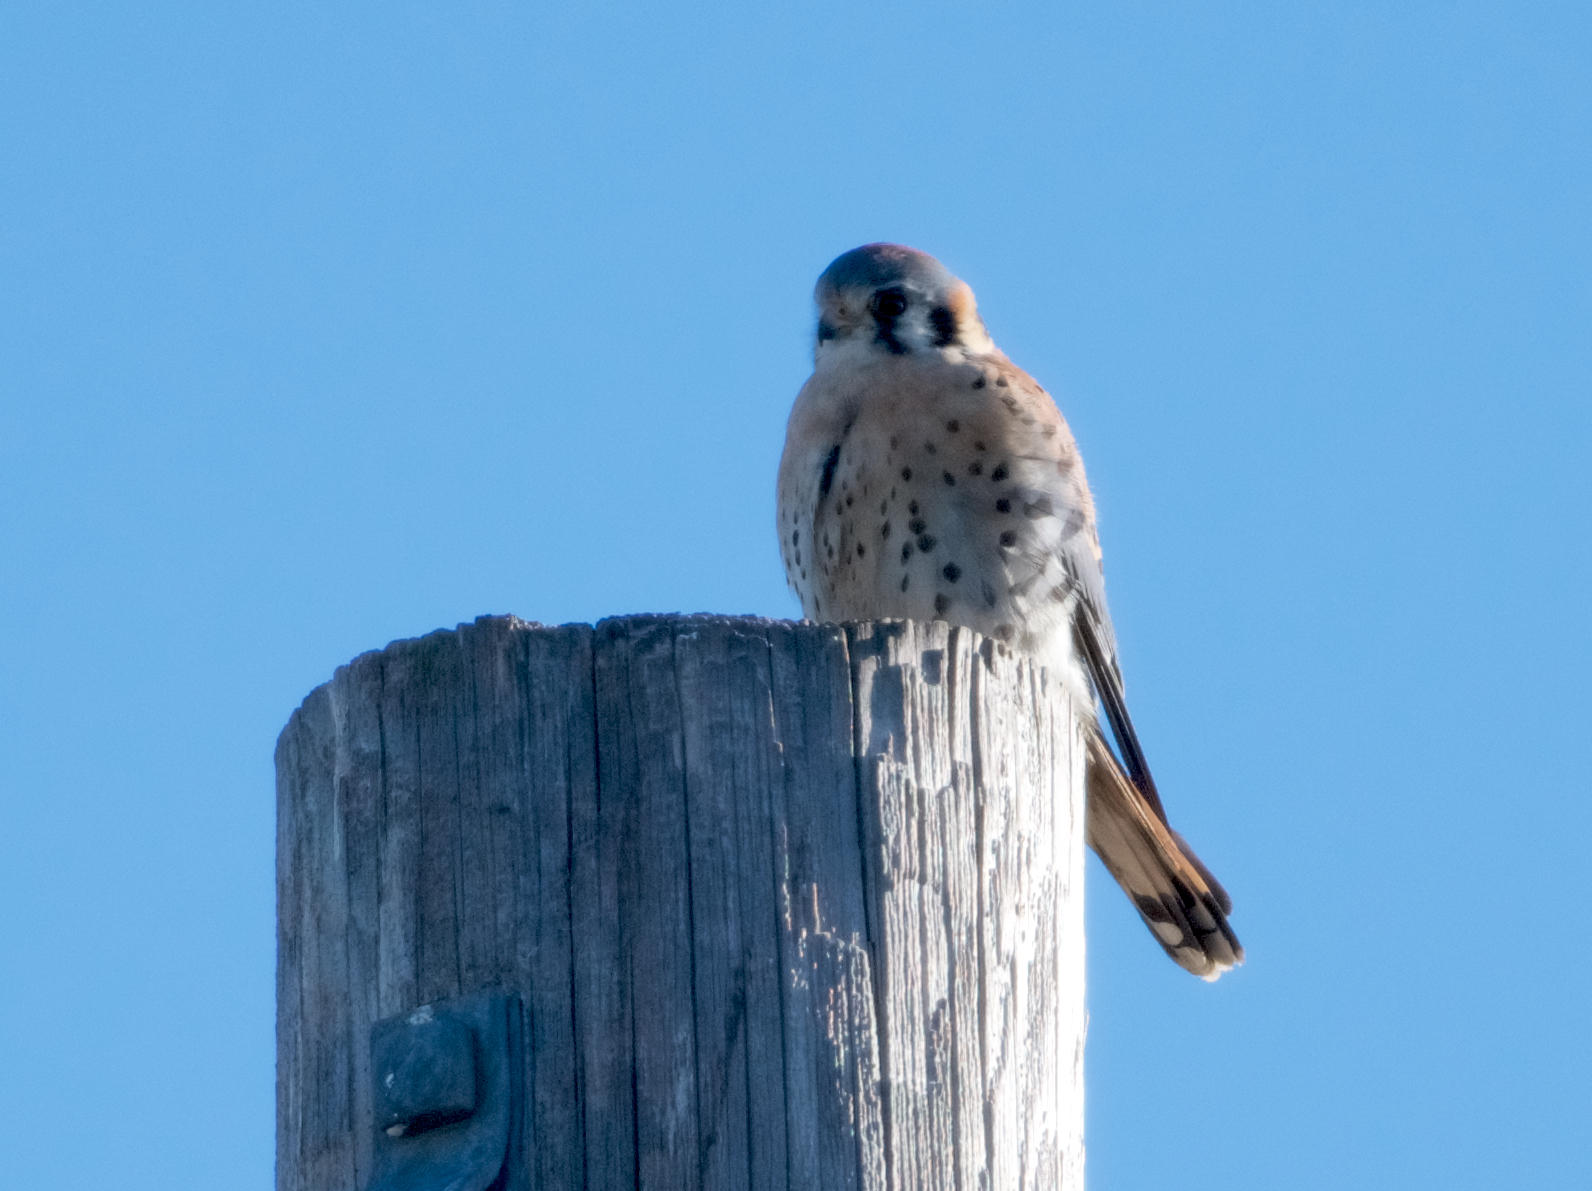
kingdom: Animalia
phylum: Chordata
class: Aves
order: Falconiformes
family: Falconidae
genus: Falco
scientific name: Falco sparverius
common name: American kestrel
